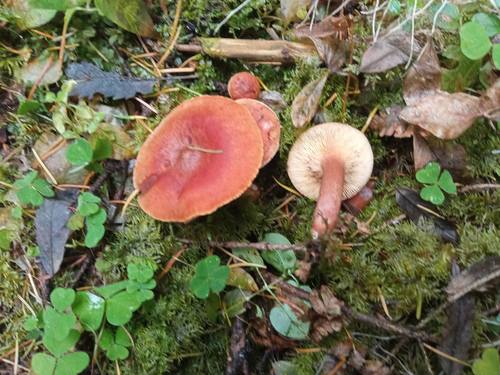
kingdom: Fungi
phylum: Basidiomycota
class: Agaricomycetes
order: Russulales
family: Russulaceae
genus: Lactarius
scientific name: Lactarius rufus
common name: Rufous milk-cap
